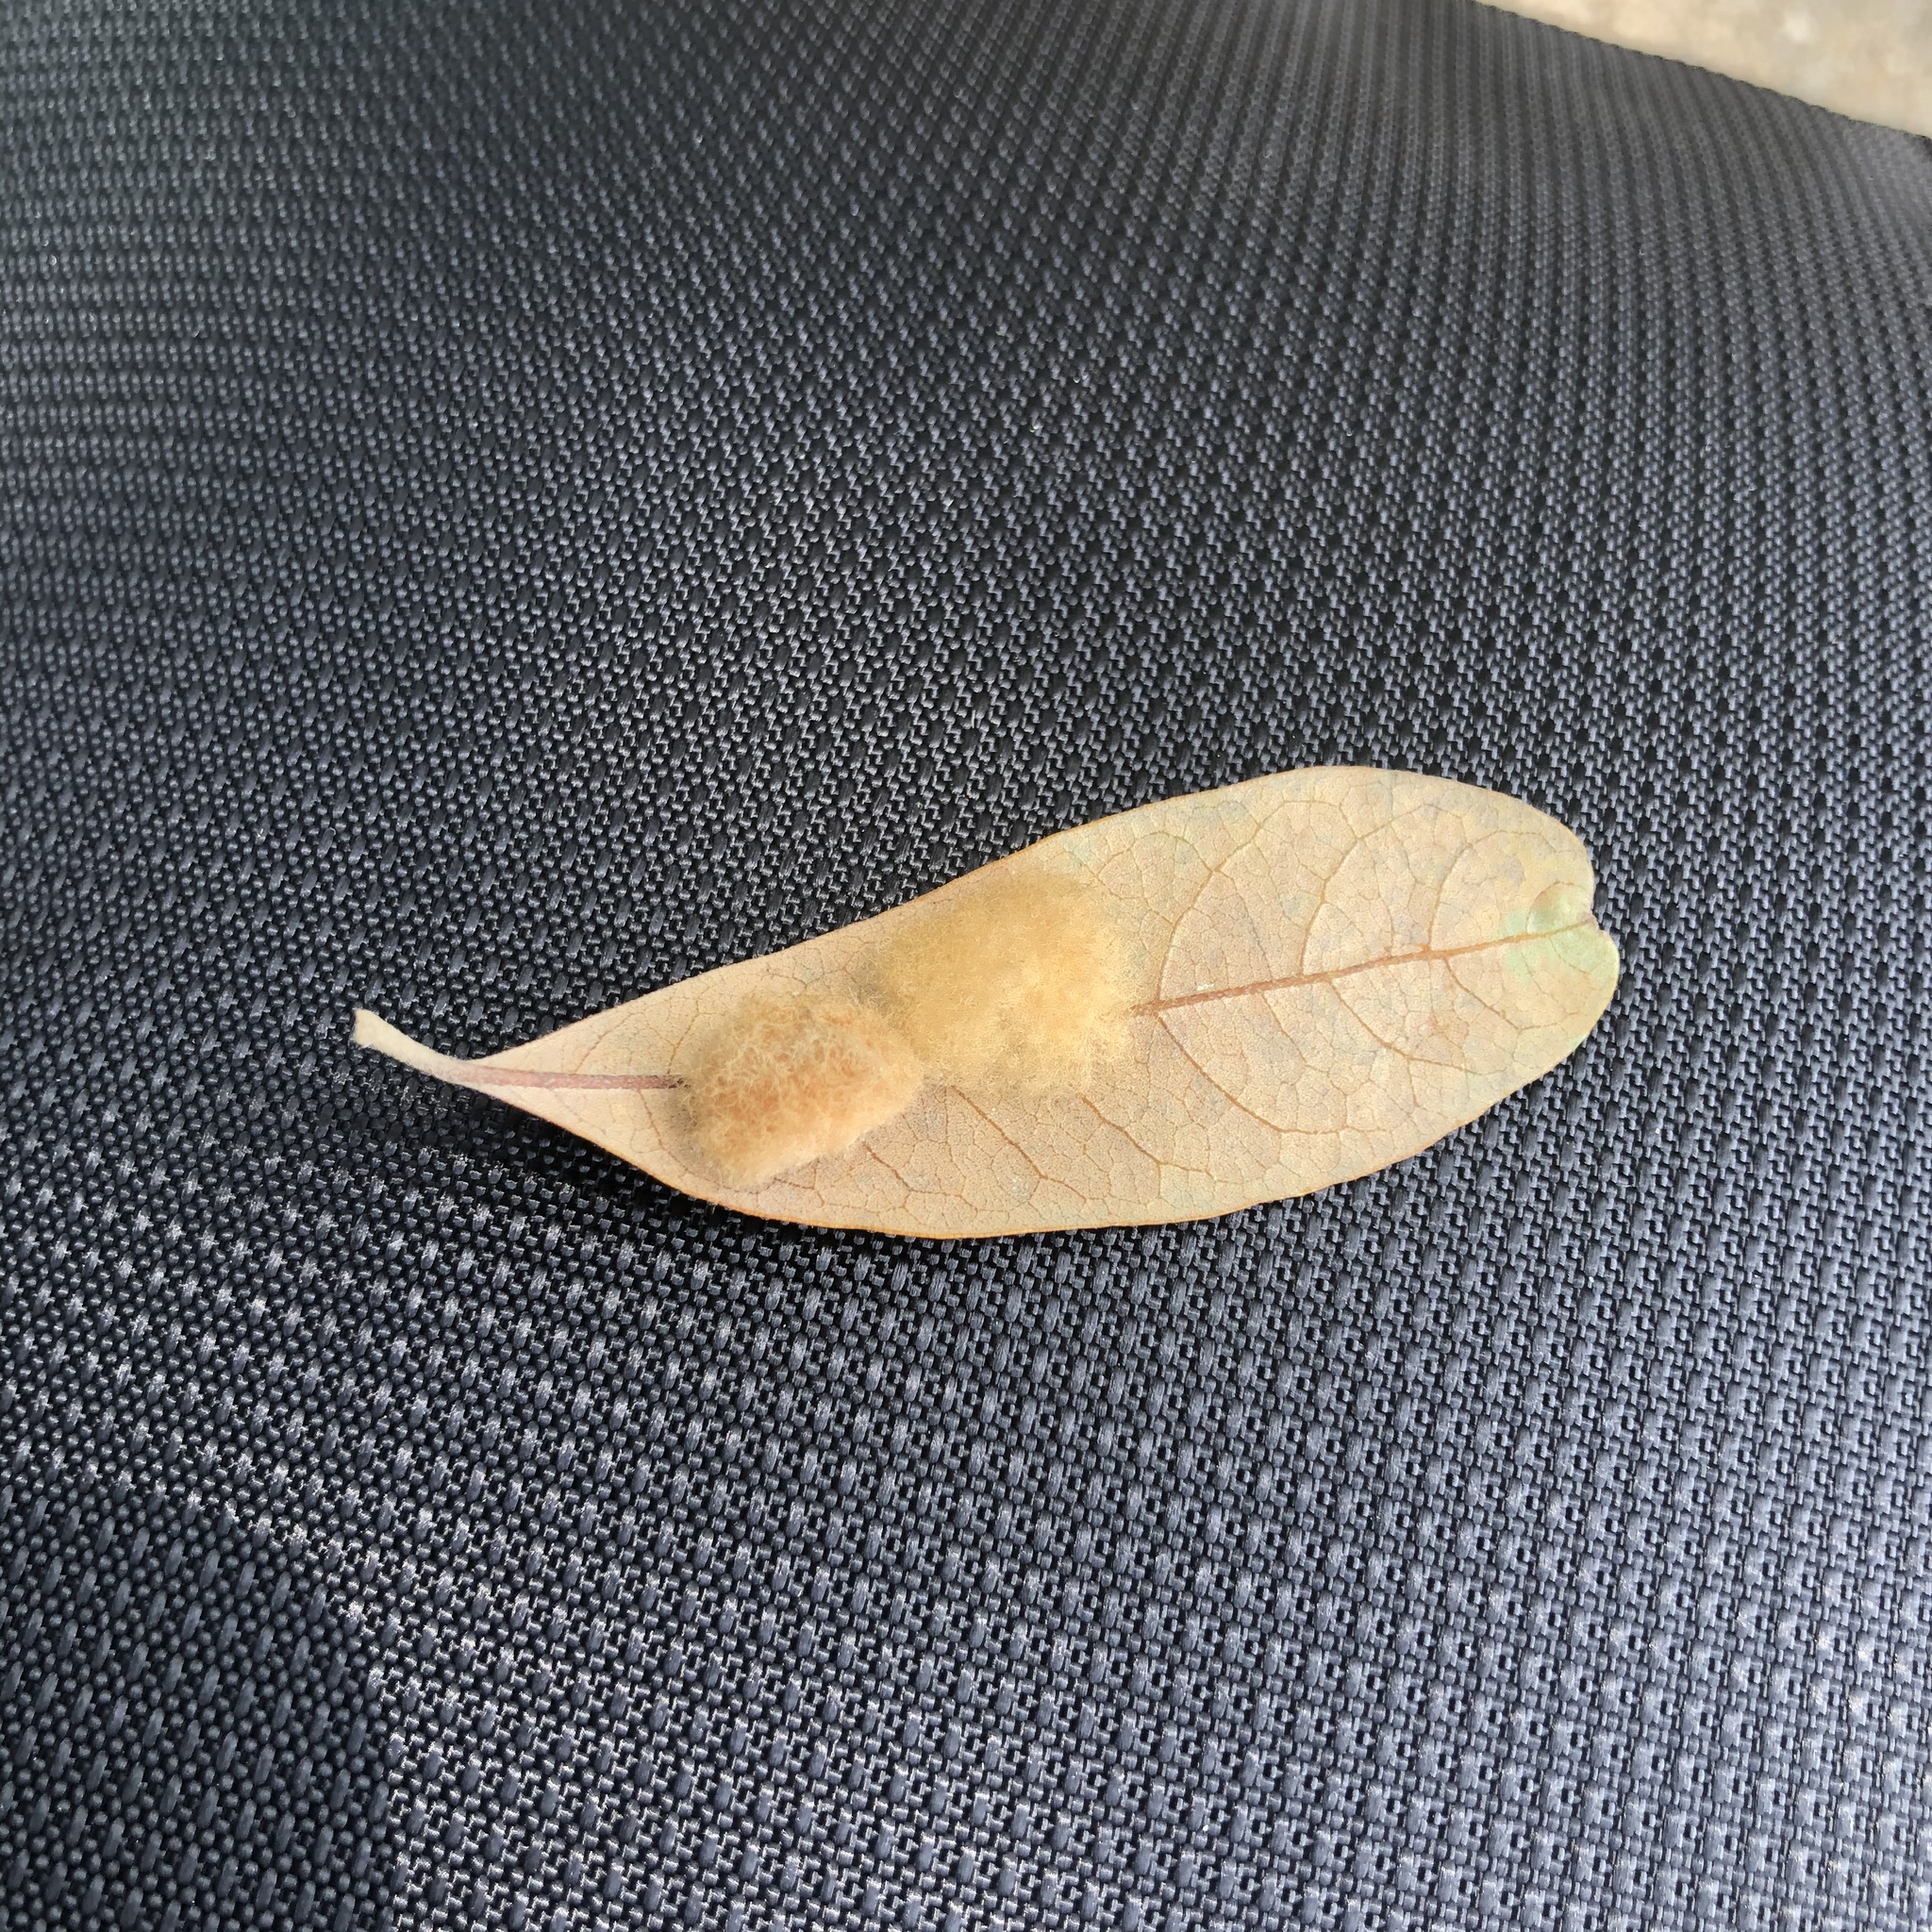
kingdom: Animalia
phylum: Arthropoda
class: Insecta
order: Hymenoptera
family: Cynipidae
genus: Andricus
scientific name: Andricus Druon quercuslanigerum
